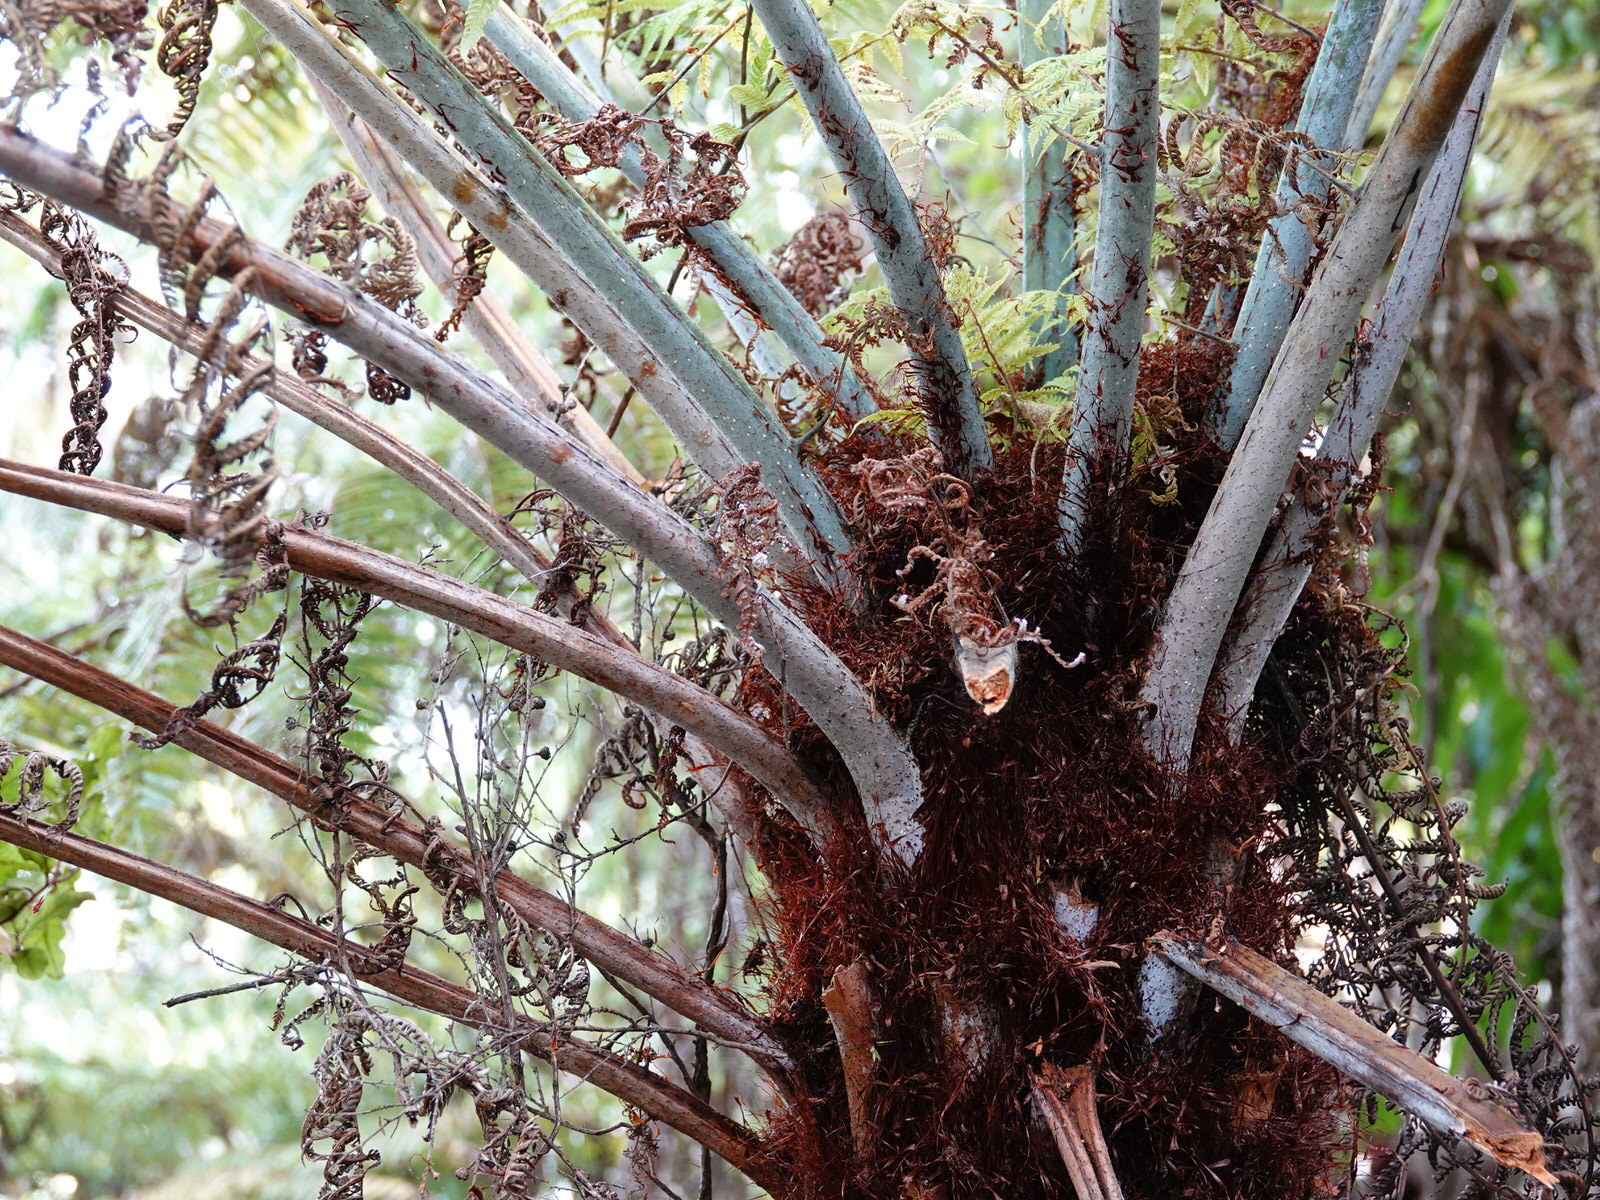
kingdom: Plantae
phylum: Tracheophyta
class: Polypodiopsida
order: Cyatheales
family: Cyatheaceae
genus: Alsophila
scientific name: Alsophila dealbata
